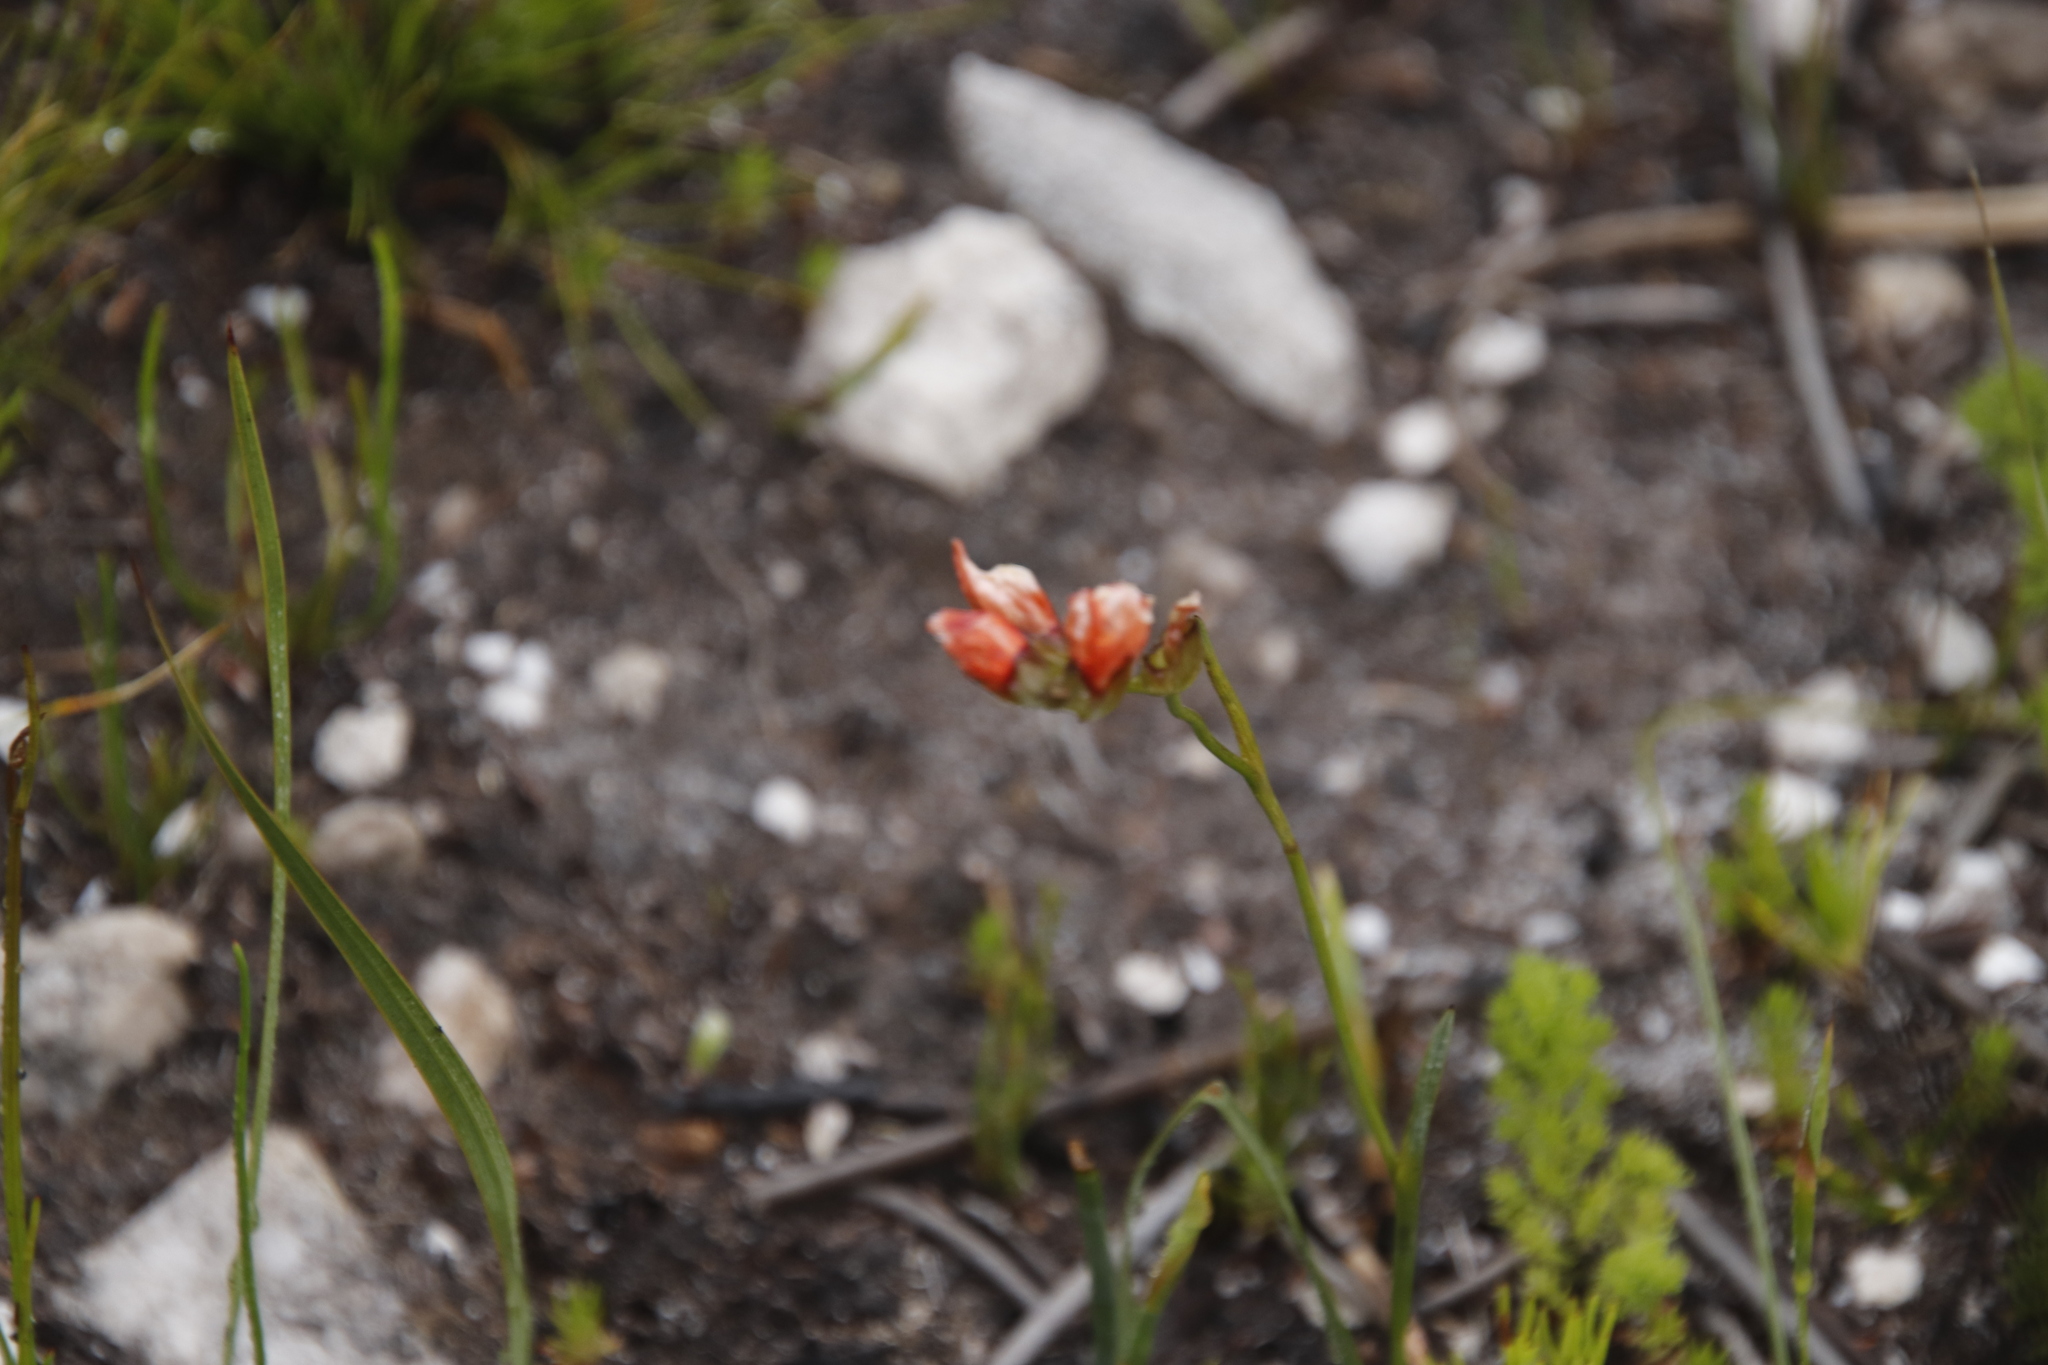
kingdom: Plantae
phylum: Tracheophyta
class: Liliopsida
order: Asparagales
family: Iridaceae
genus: Gladiolus
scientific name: Gladiolus brevitubus
